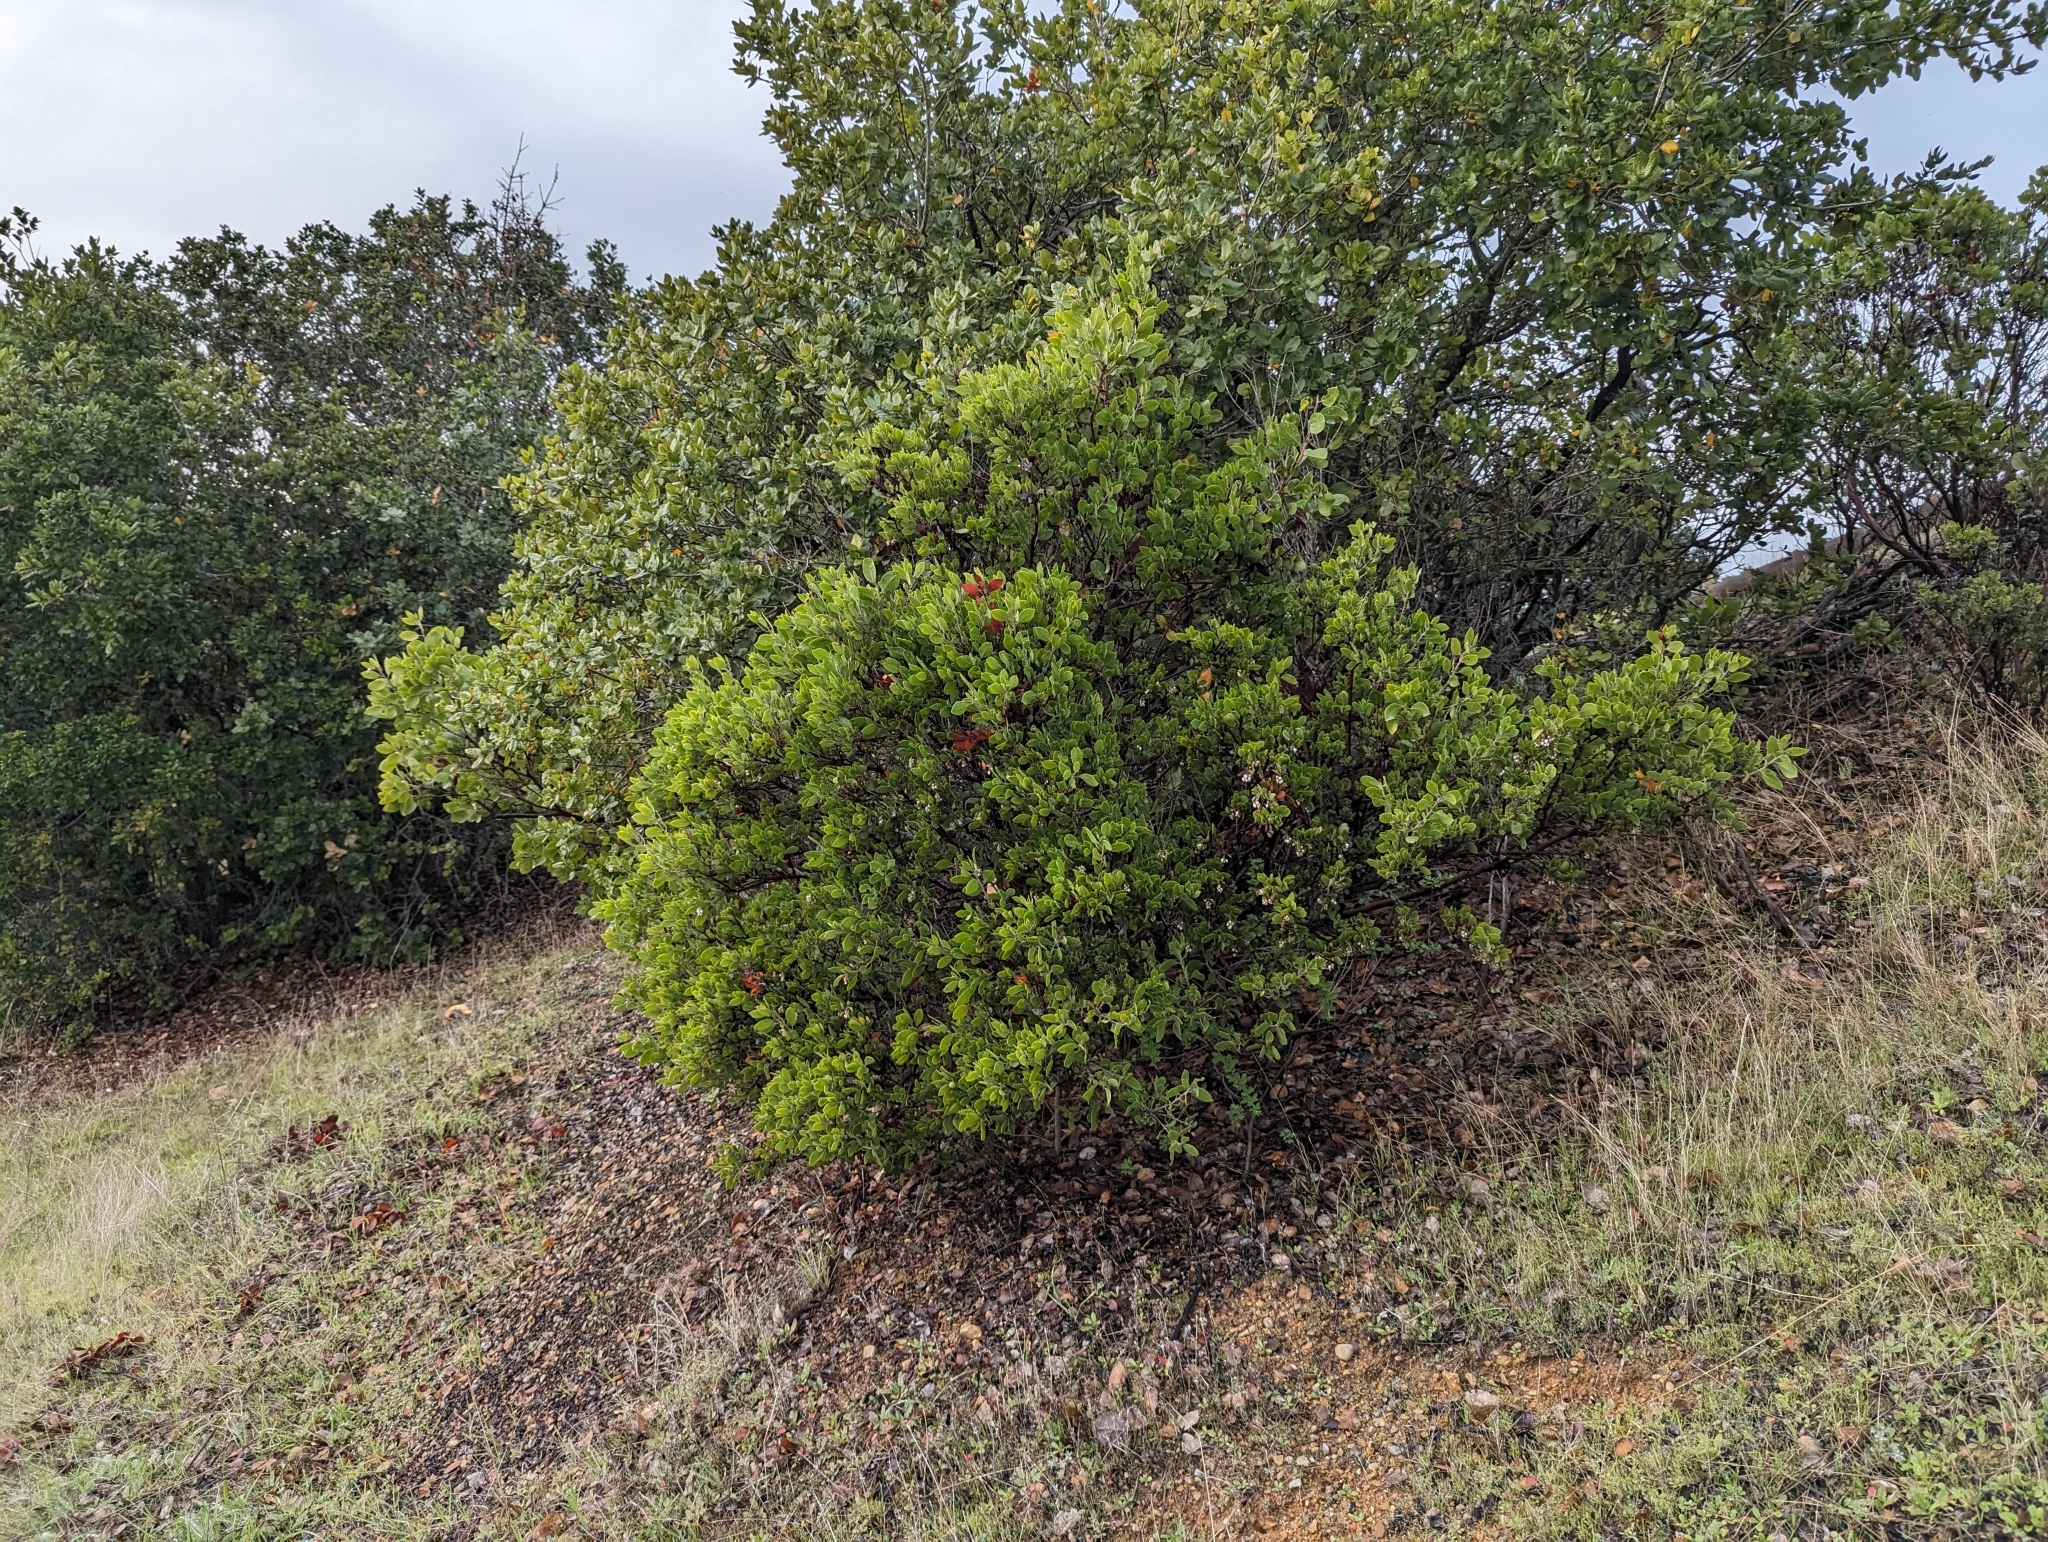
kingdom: Plantae
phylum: Tracheophyta
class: Magnoliopsida
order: Ericales
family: Ericaceae
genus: Arctostaphylos
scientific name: Arctostaphylos manzanita
